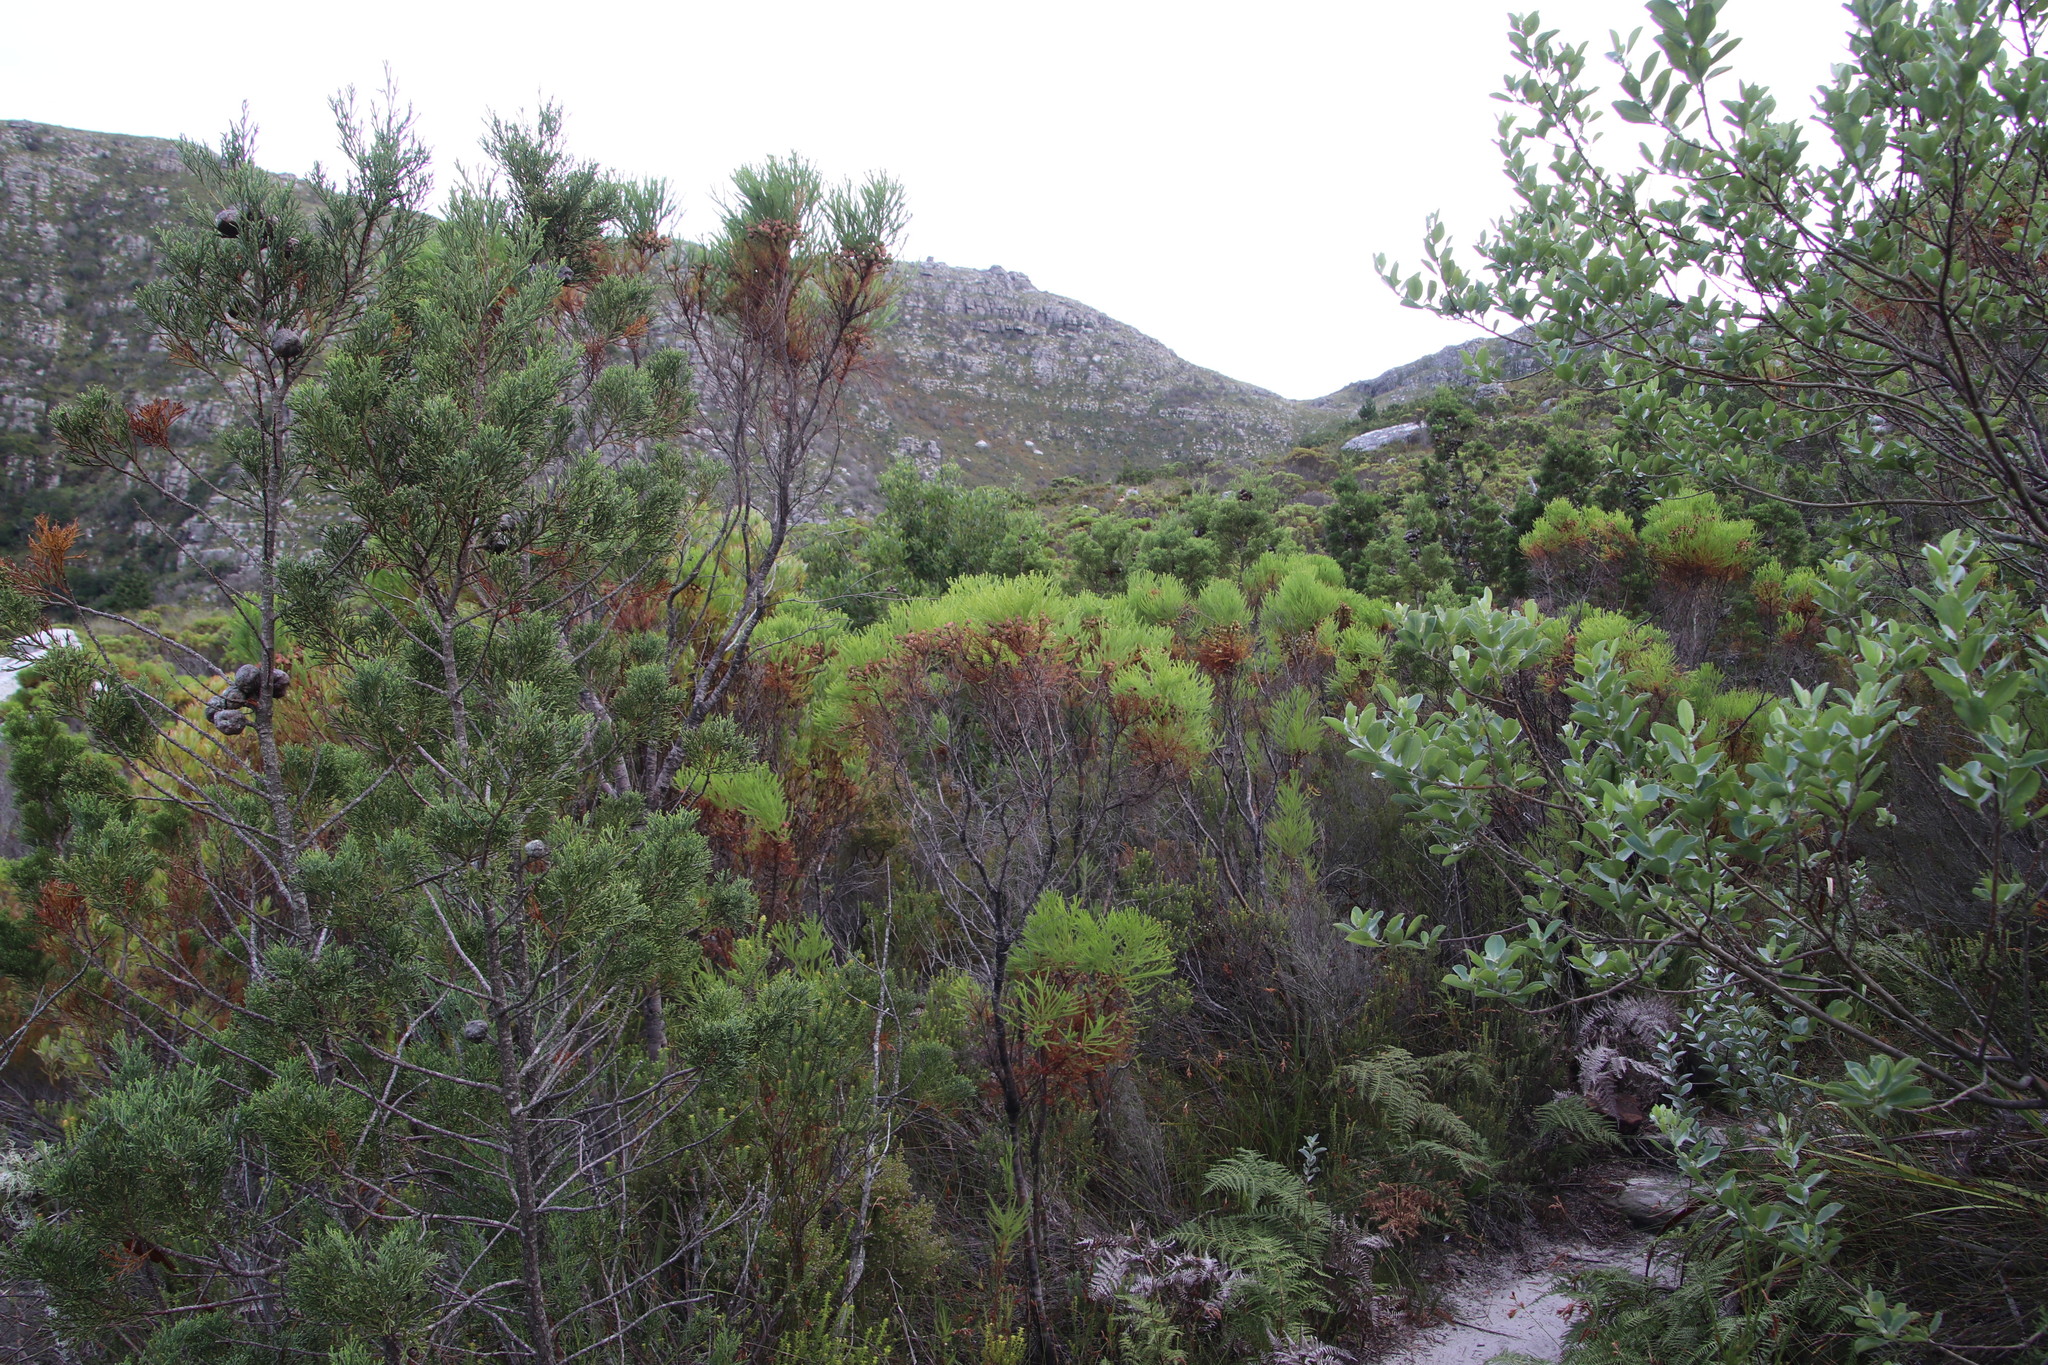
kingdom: Plantae
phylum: Tracheophyta
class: Magnoliopsida
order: Bruniales
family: Bruniaceae
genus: Berzelia
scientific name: Berzelia lanuginosa
